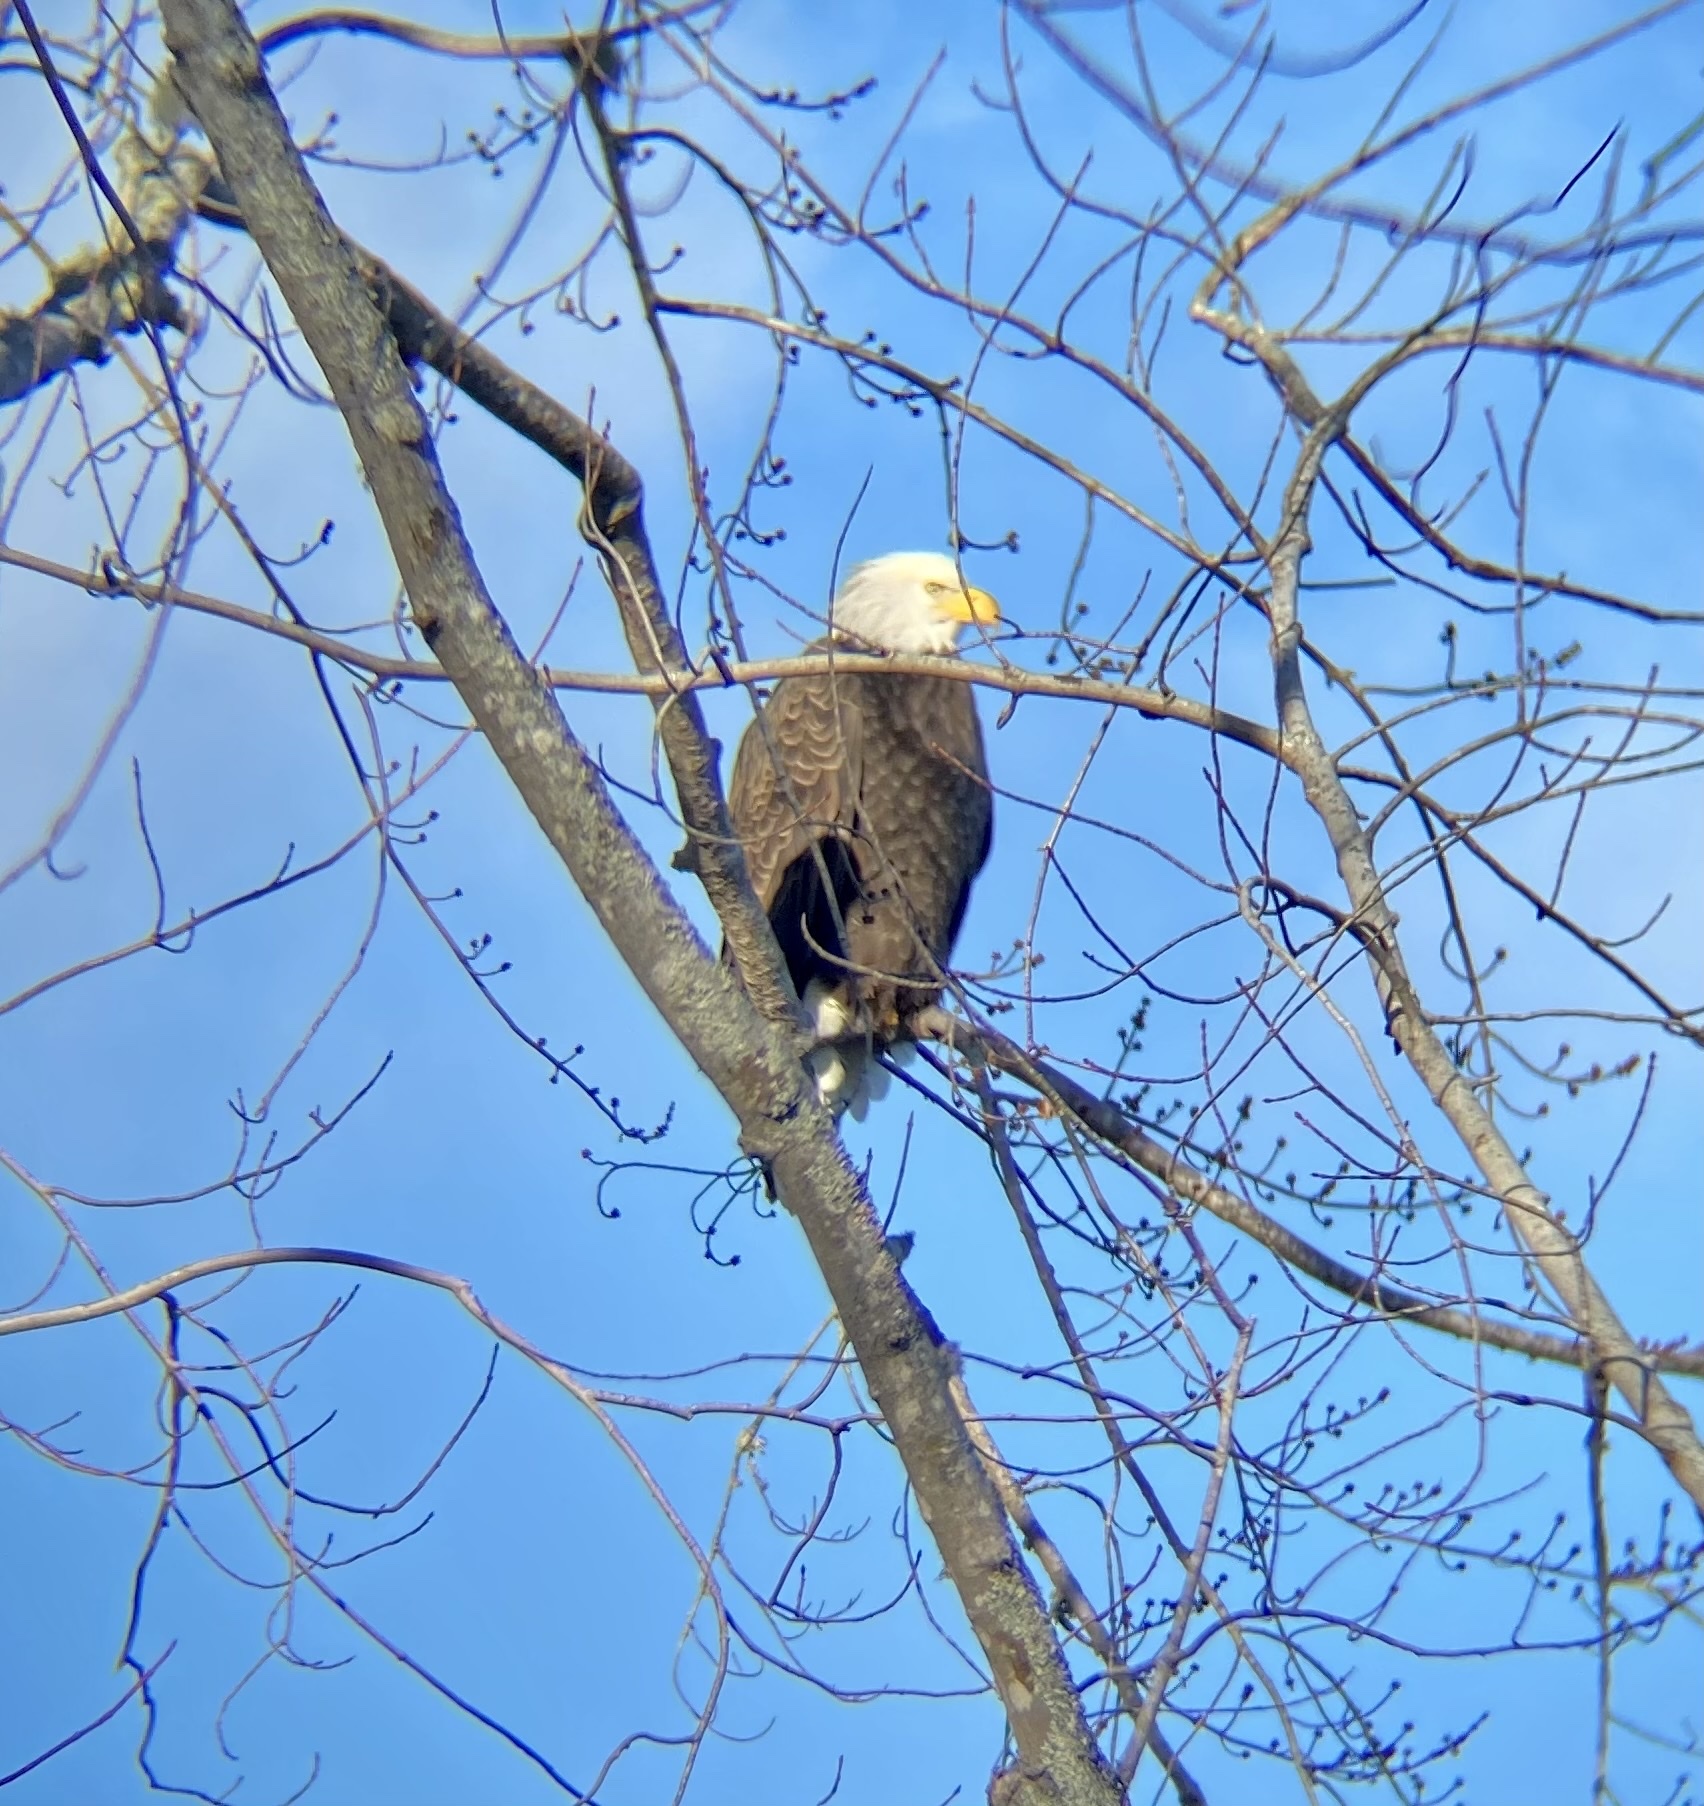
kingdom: Animalia
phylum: Chordata
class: Aves
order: Accipitriformes
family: Accipitridae
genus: Haliaeetus
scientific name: Haliaeetus leucocephalus
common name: Bald eagle
